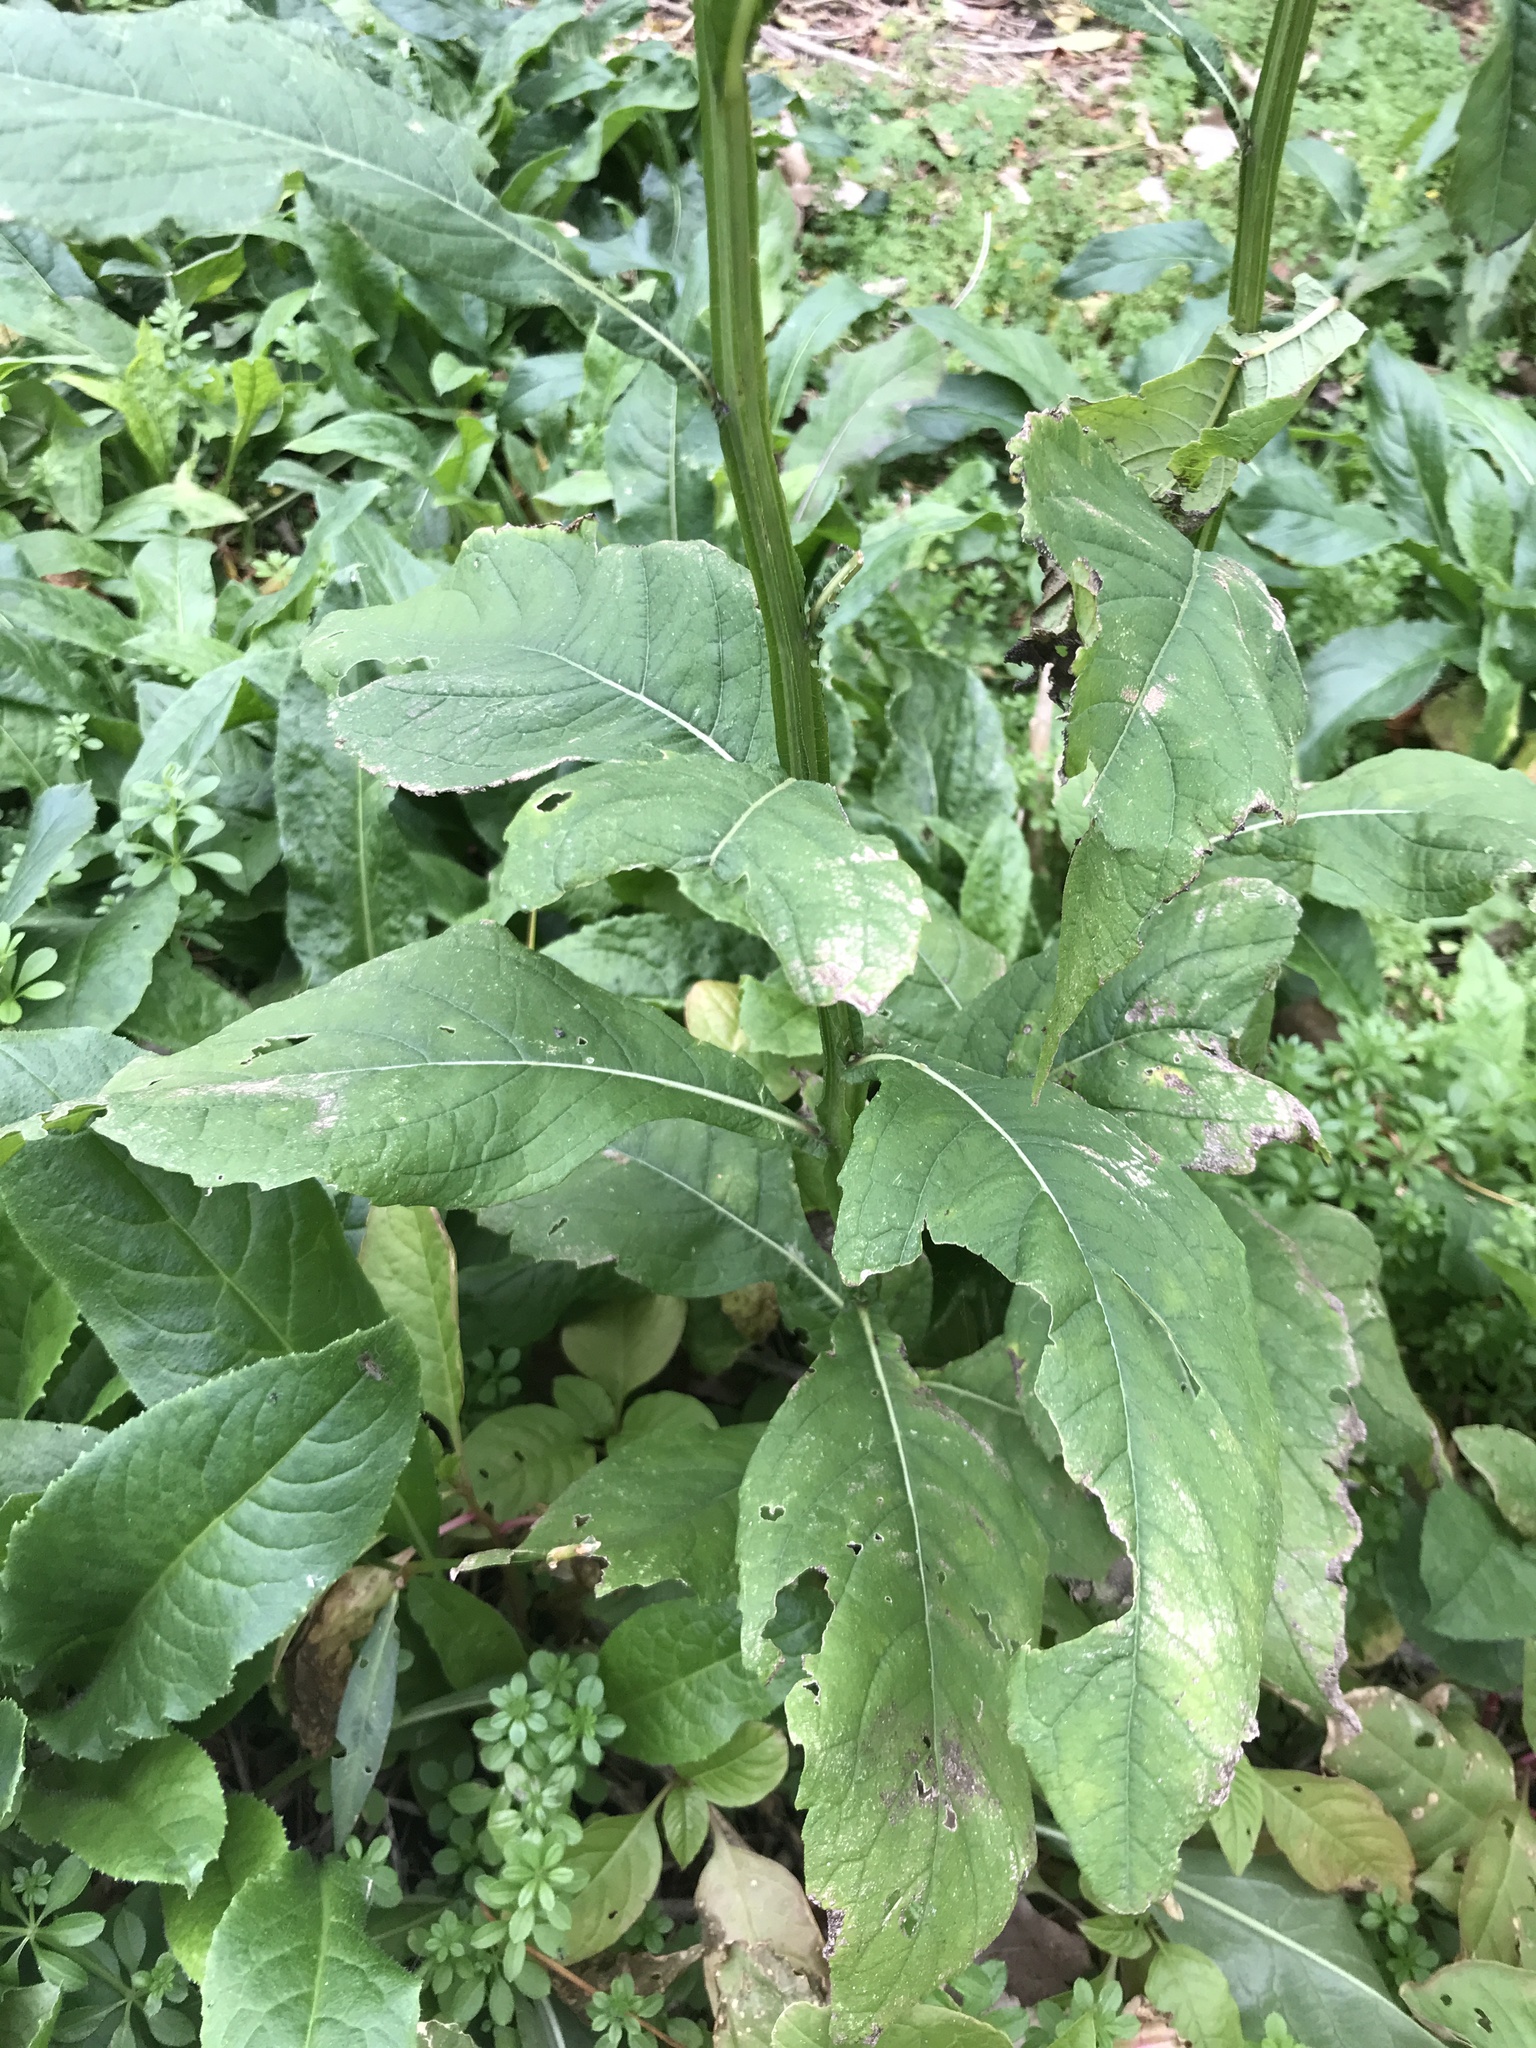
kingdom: Plantae
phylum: Tracheophyta
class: Magnoliopsida
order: Asterales
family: Asteraceae
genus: Verbesina
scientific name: Verbesina alternifolia
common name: Wingstem
